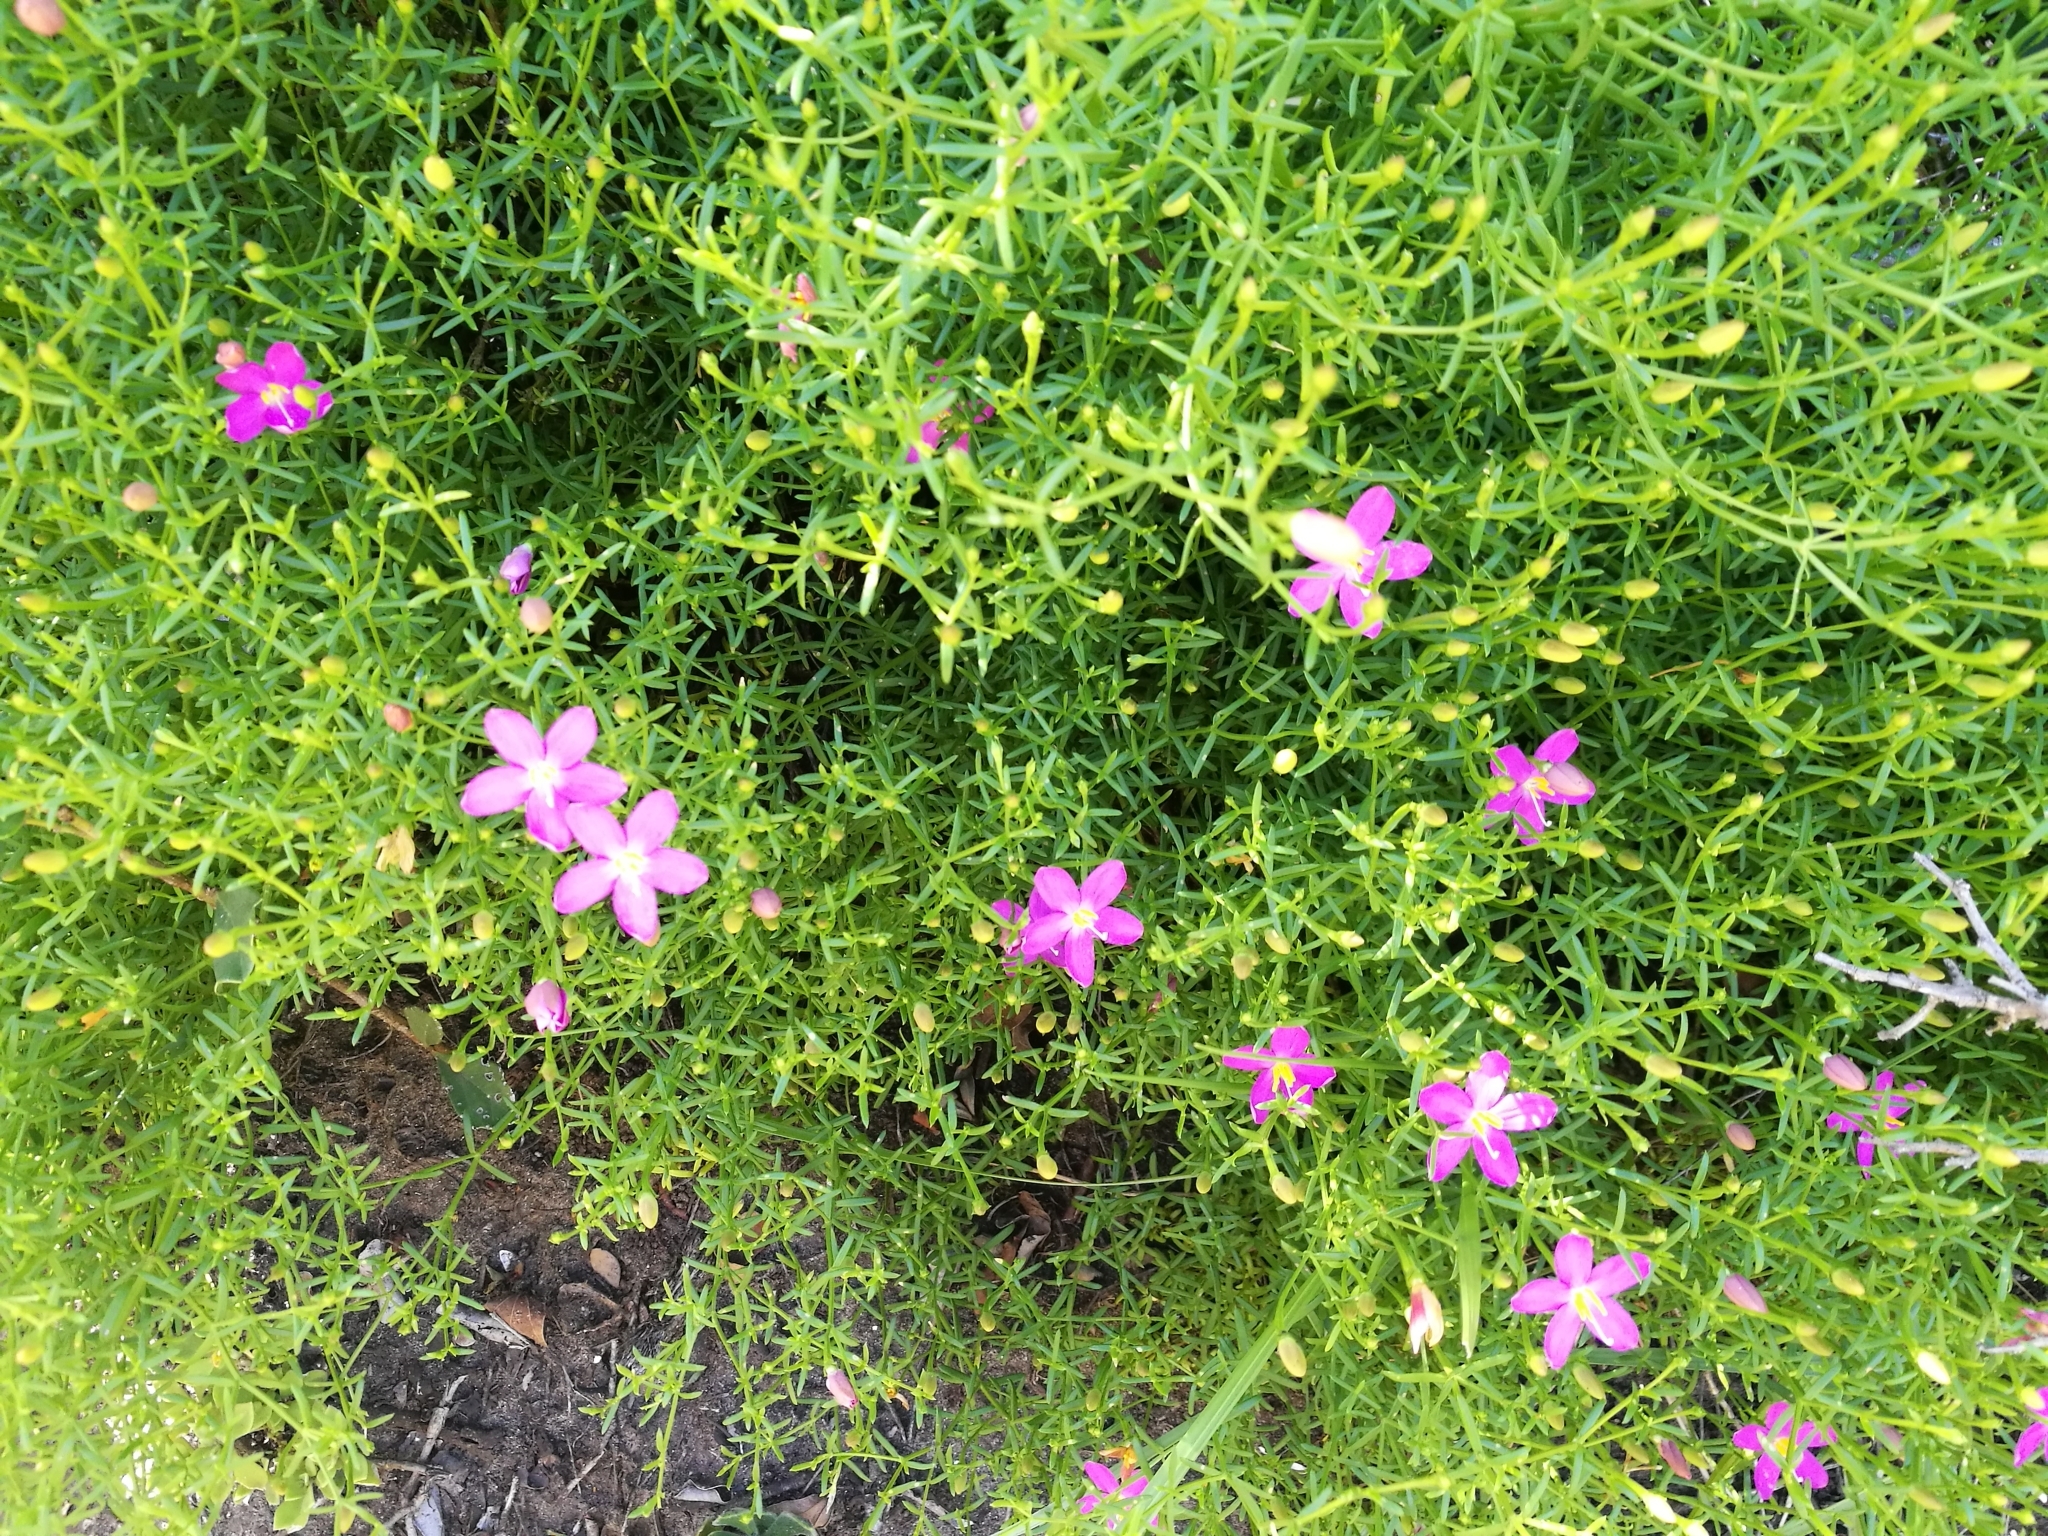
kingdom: Plantae
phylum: Tracheophyta
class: Magnoliopsida
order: Gentianales
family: Gentianaceae
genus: Chironia
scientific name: Chironia baccifera
